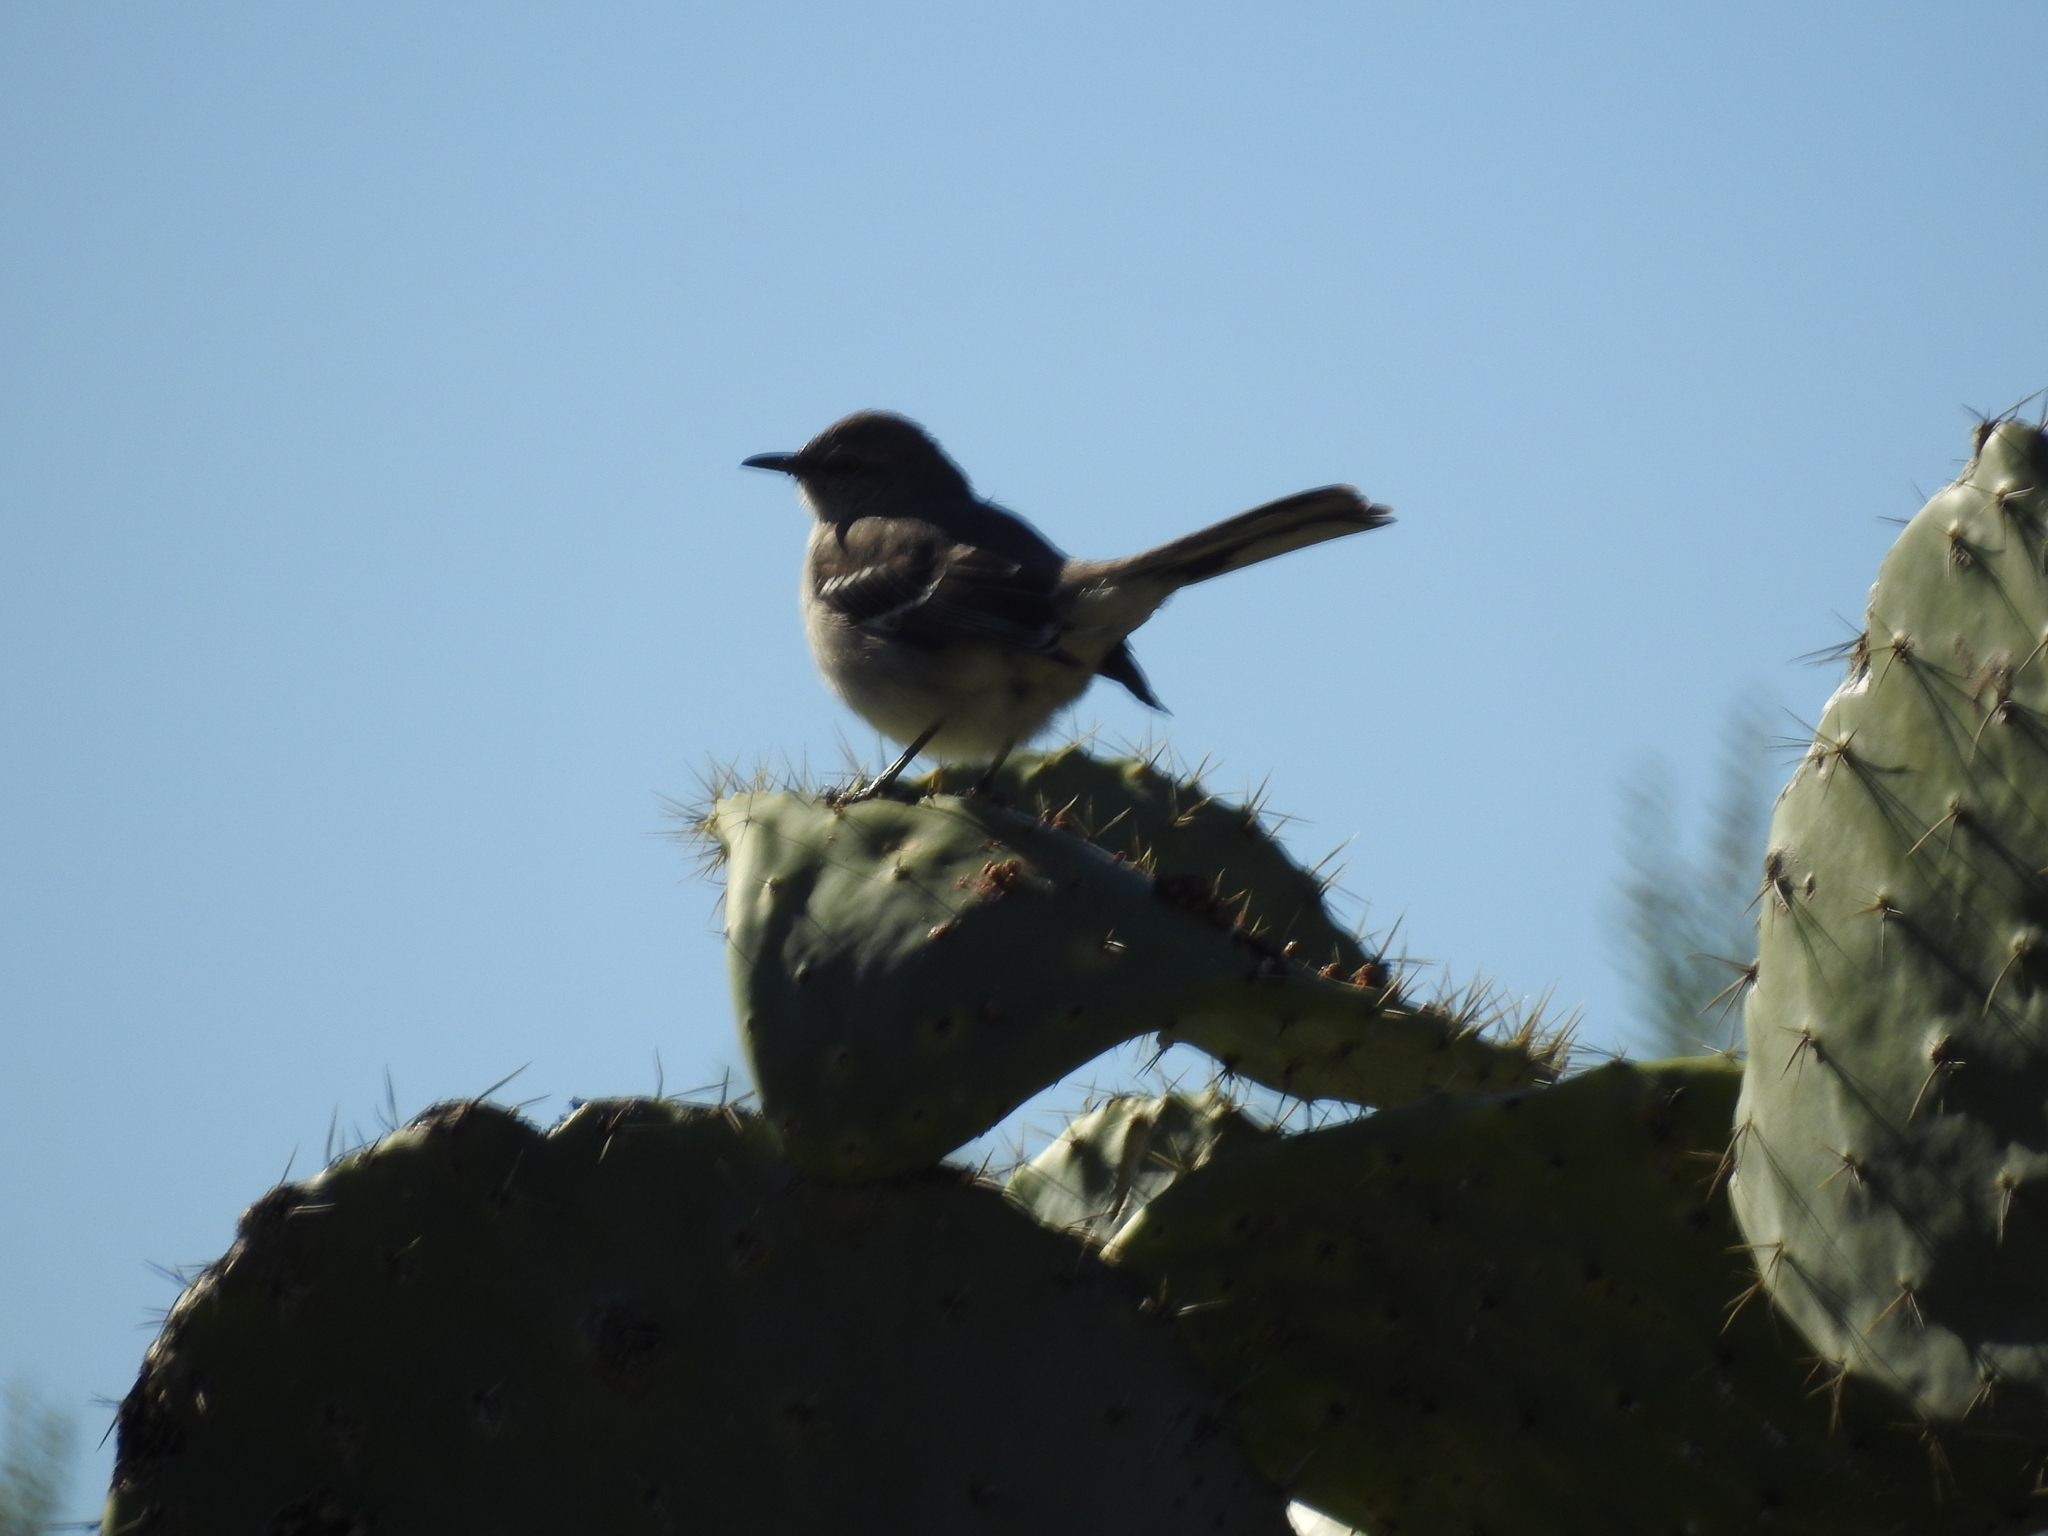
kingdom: Animalia
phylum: Chordata
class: Aves
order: Passeriformes
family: Mimidae
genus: Mimus
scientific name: Mimus polyglottos
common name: Northern mockingbird
